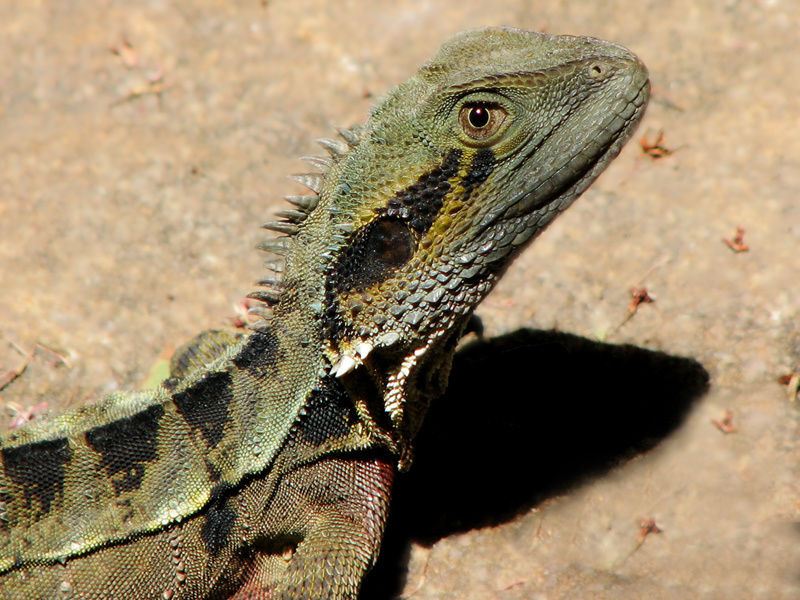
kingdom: Animalia
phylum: Chordata
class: Squamata
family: Agamidae
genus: Intellagama
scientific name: Intellagama lesueurii
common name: Eastern water dragon
